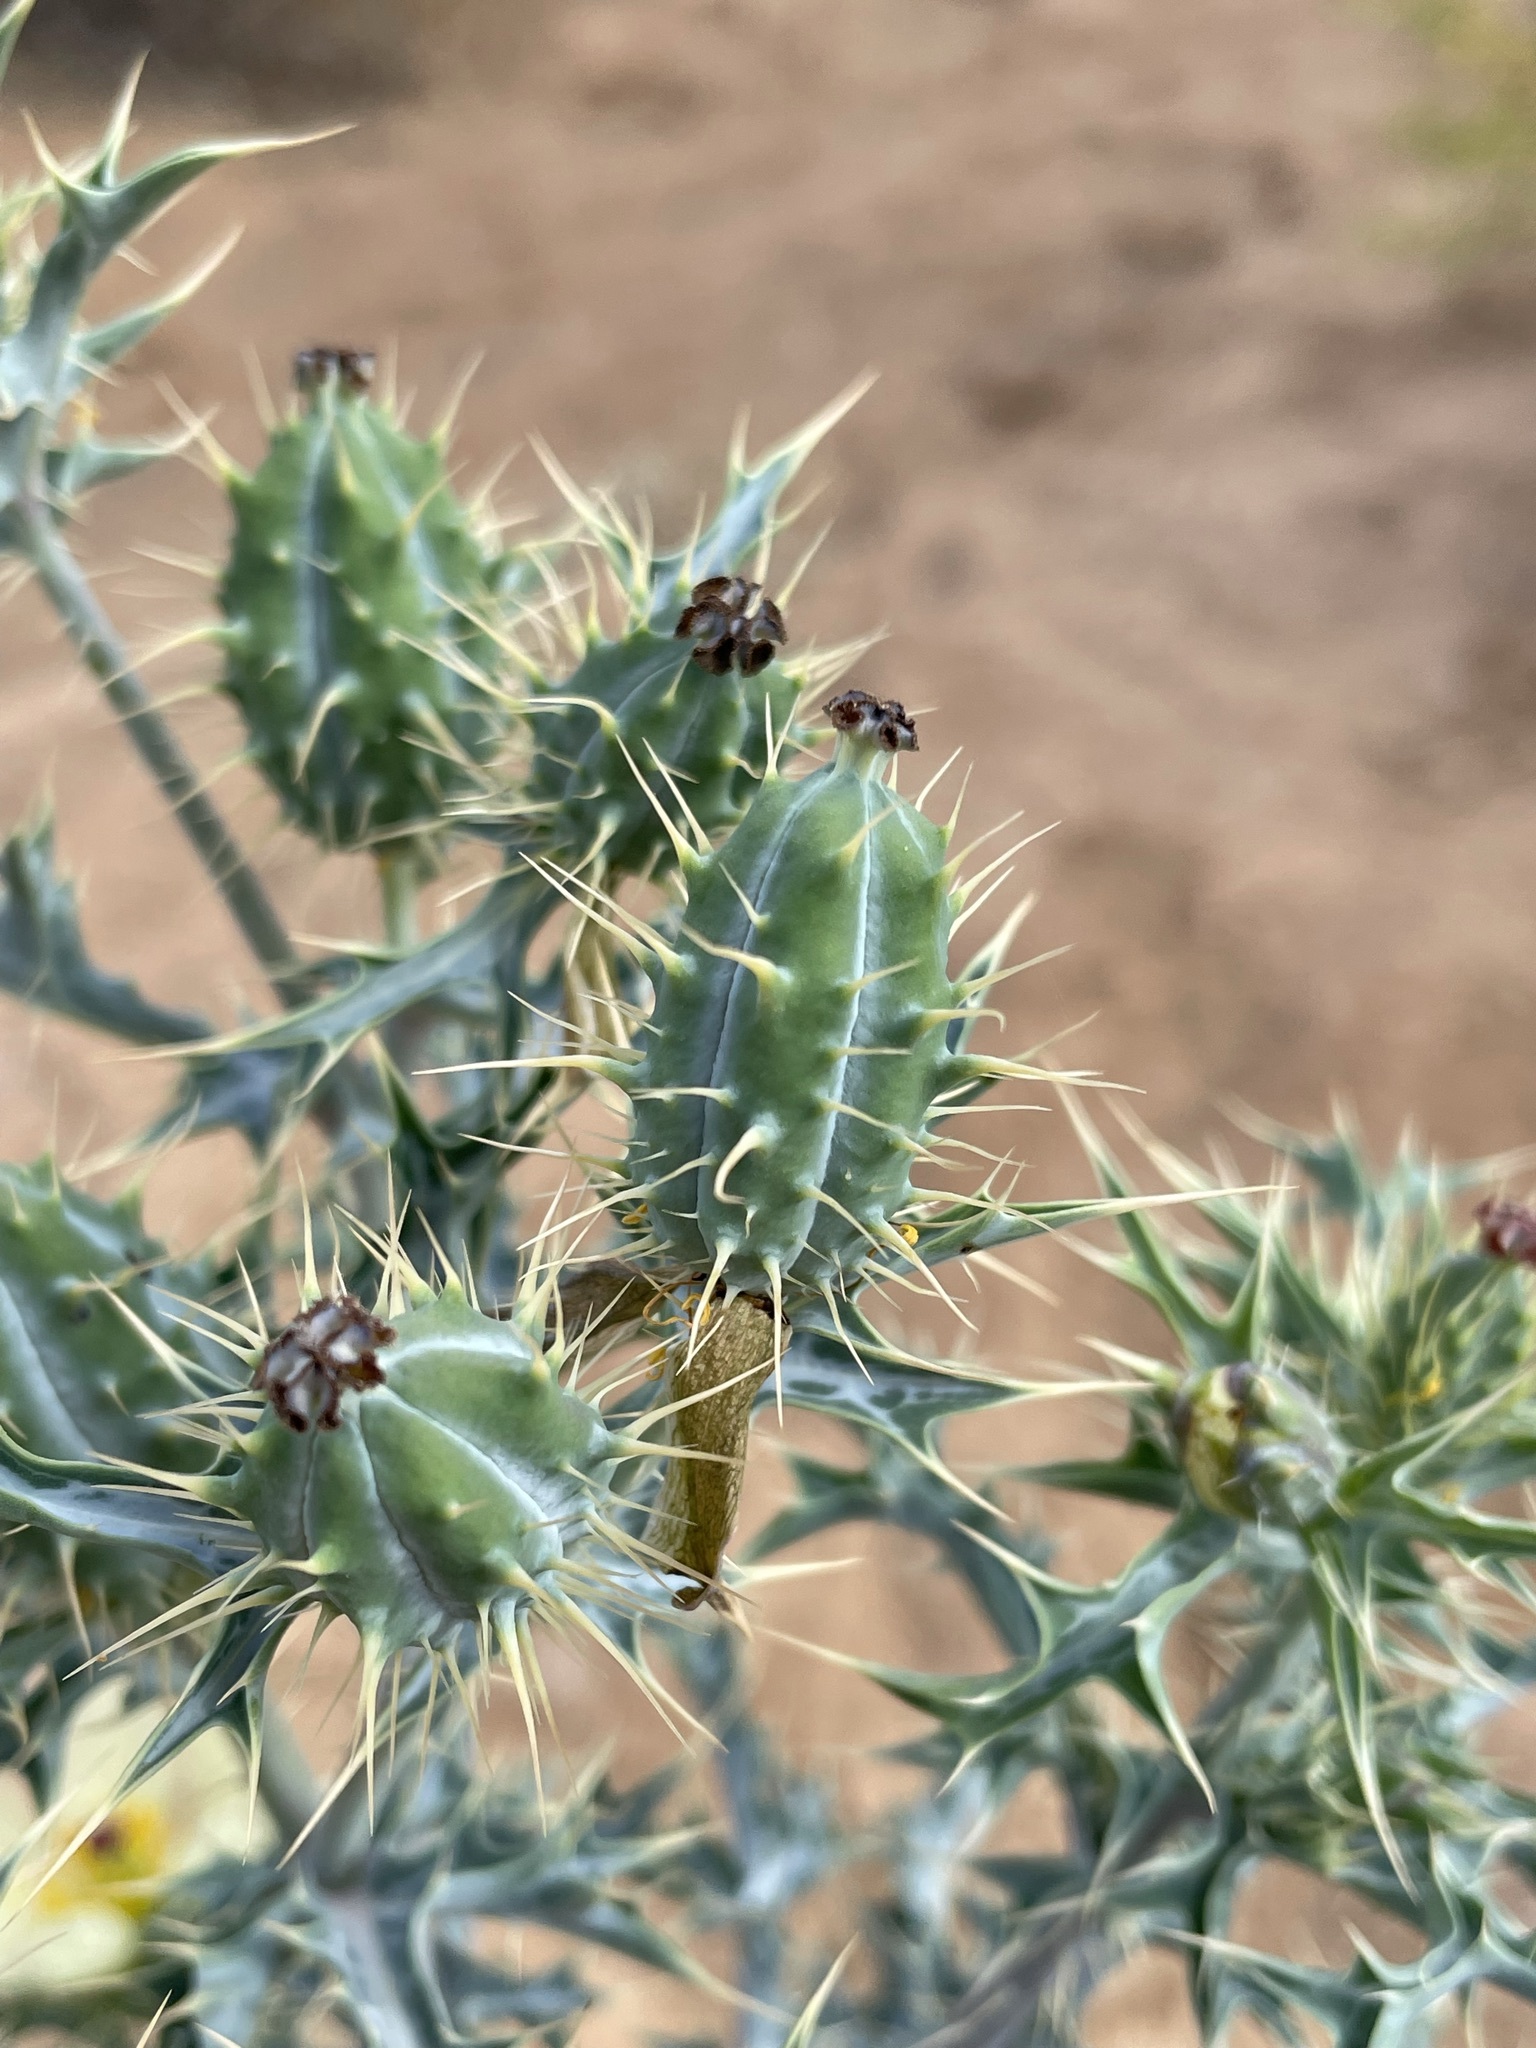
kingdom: Plantae
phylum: Tracheophyta
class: Magnoliopsida
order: Ranunculales
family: Papaveraceae
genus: Argemone
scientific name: Argemone ochroleuca
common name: White-flower mexican-poppy
